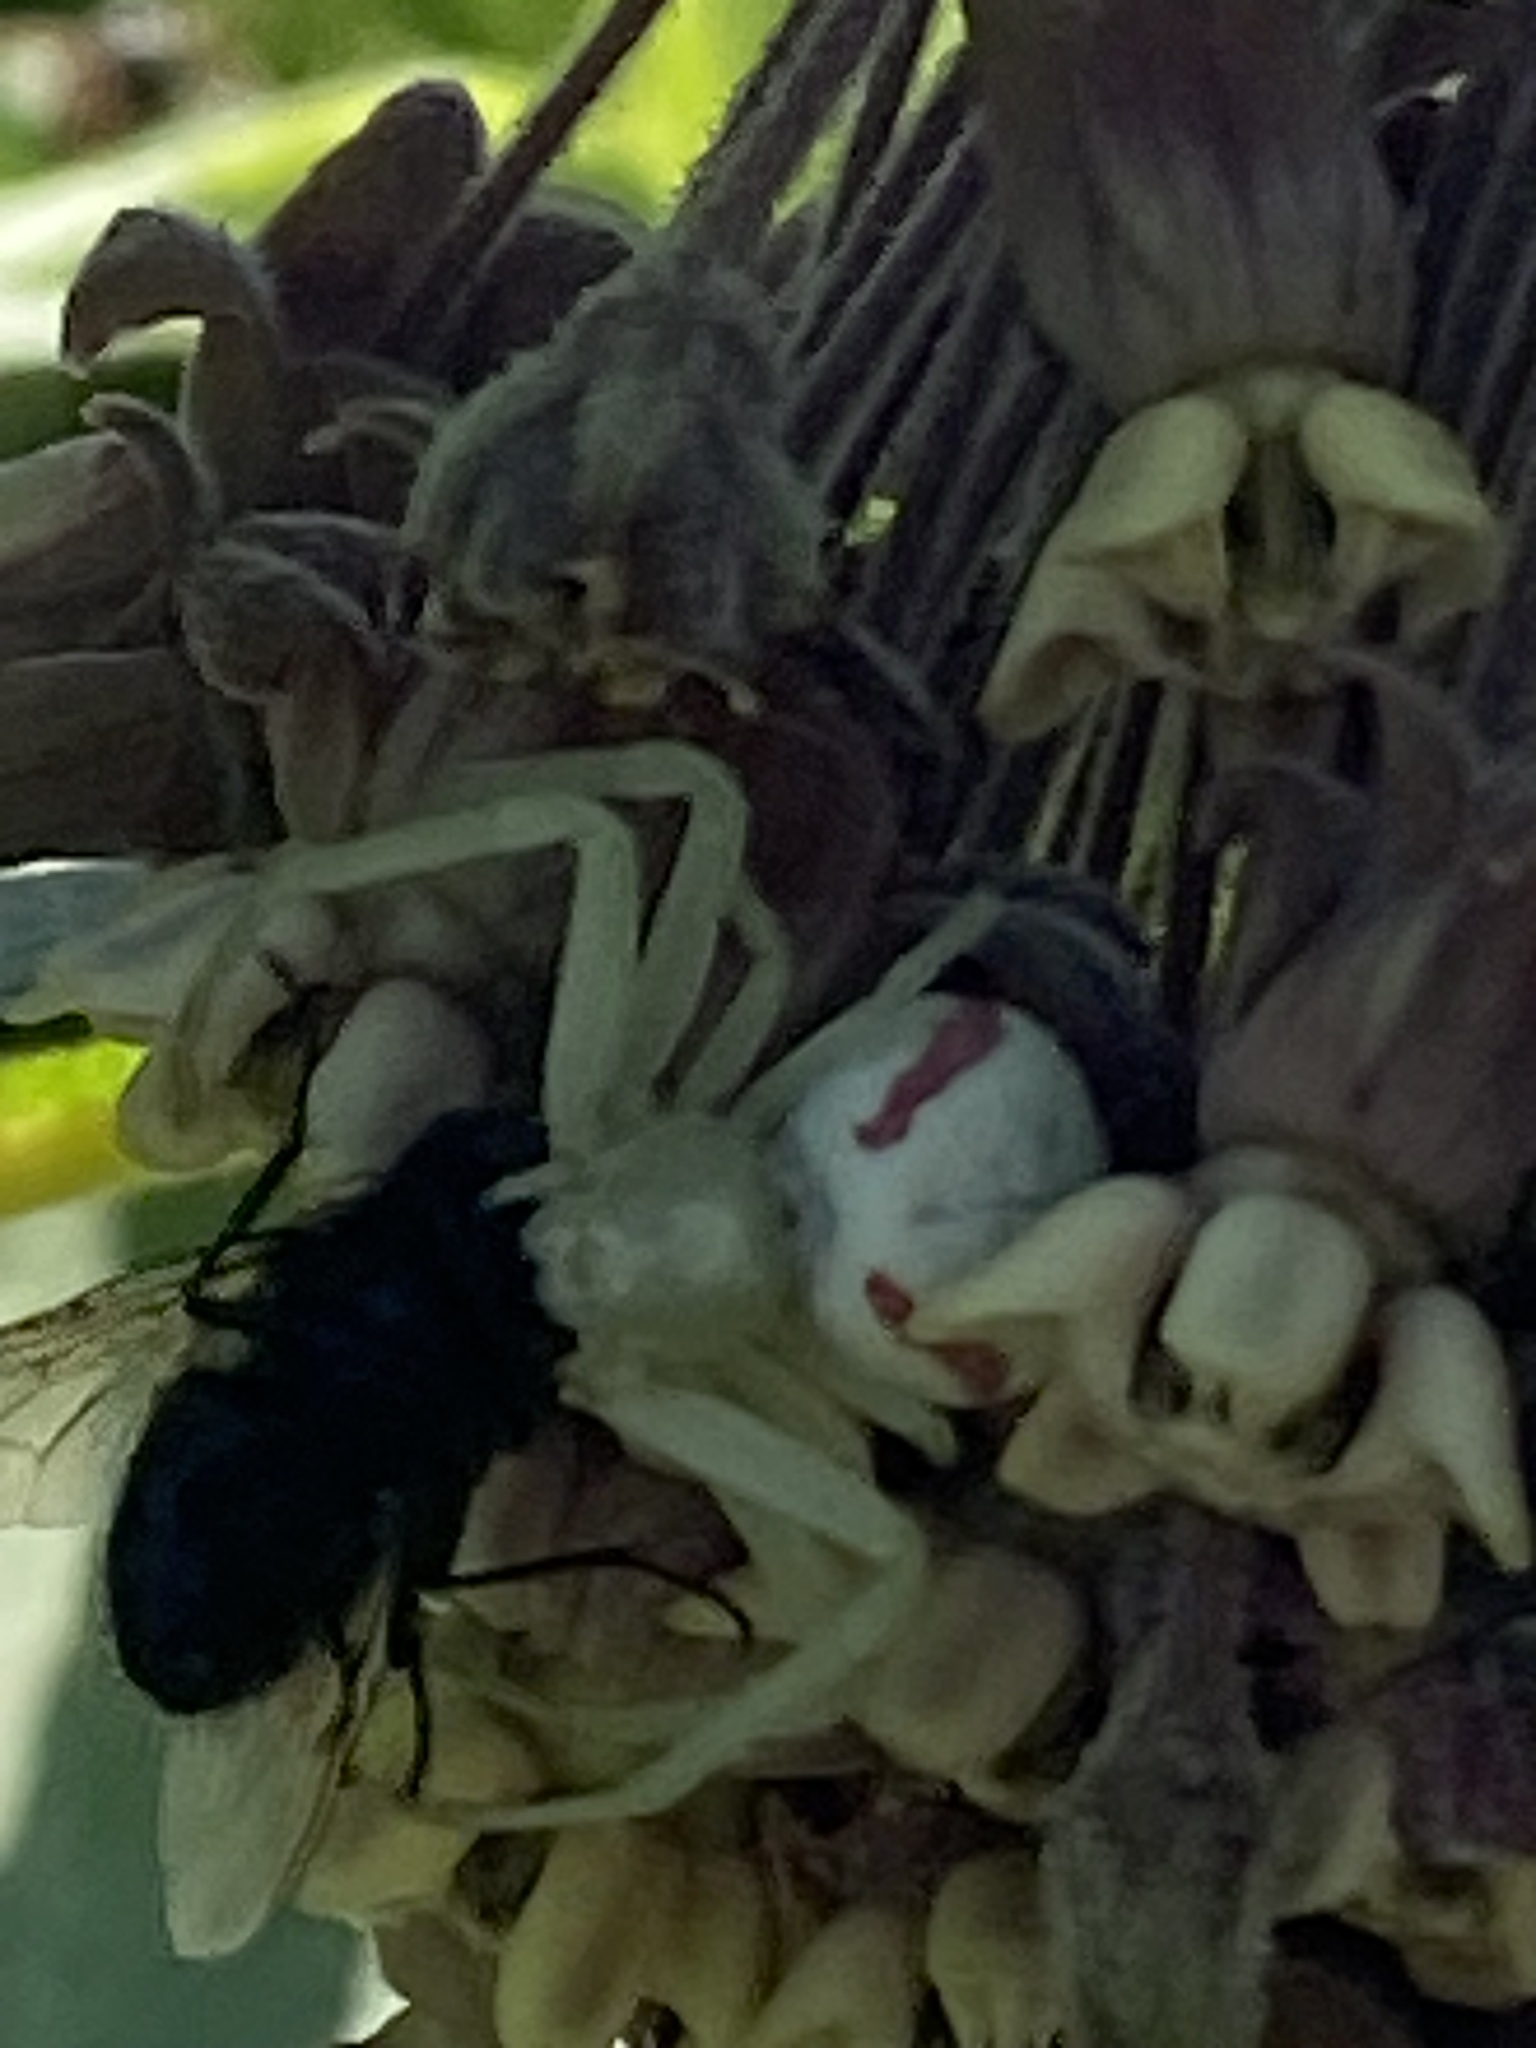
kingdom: Animalia
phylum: Arthropoda
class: Arachnida
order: Araneae
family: Thomisidae
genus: Misumena
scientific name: Misumena vatia
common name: Goldenrod crab spider
